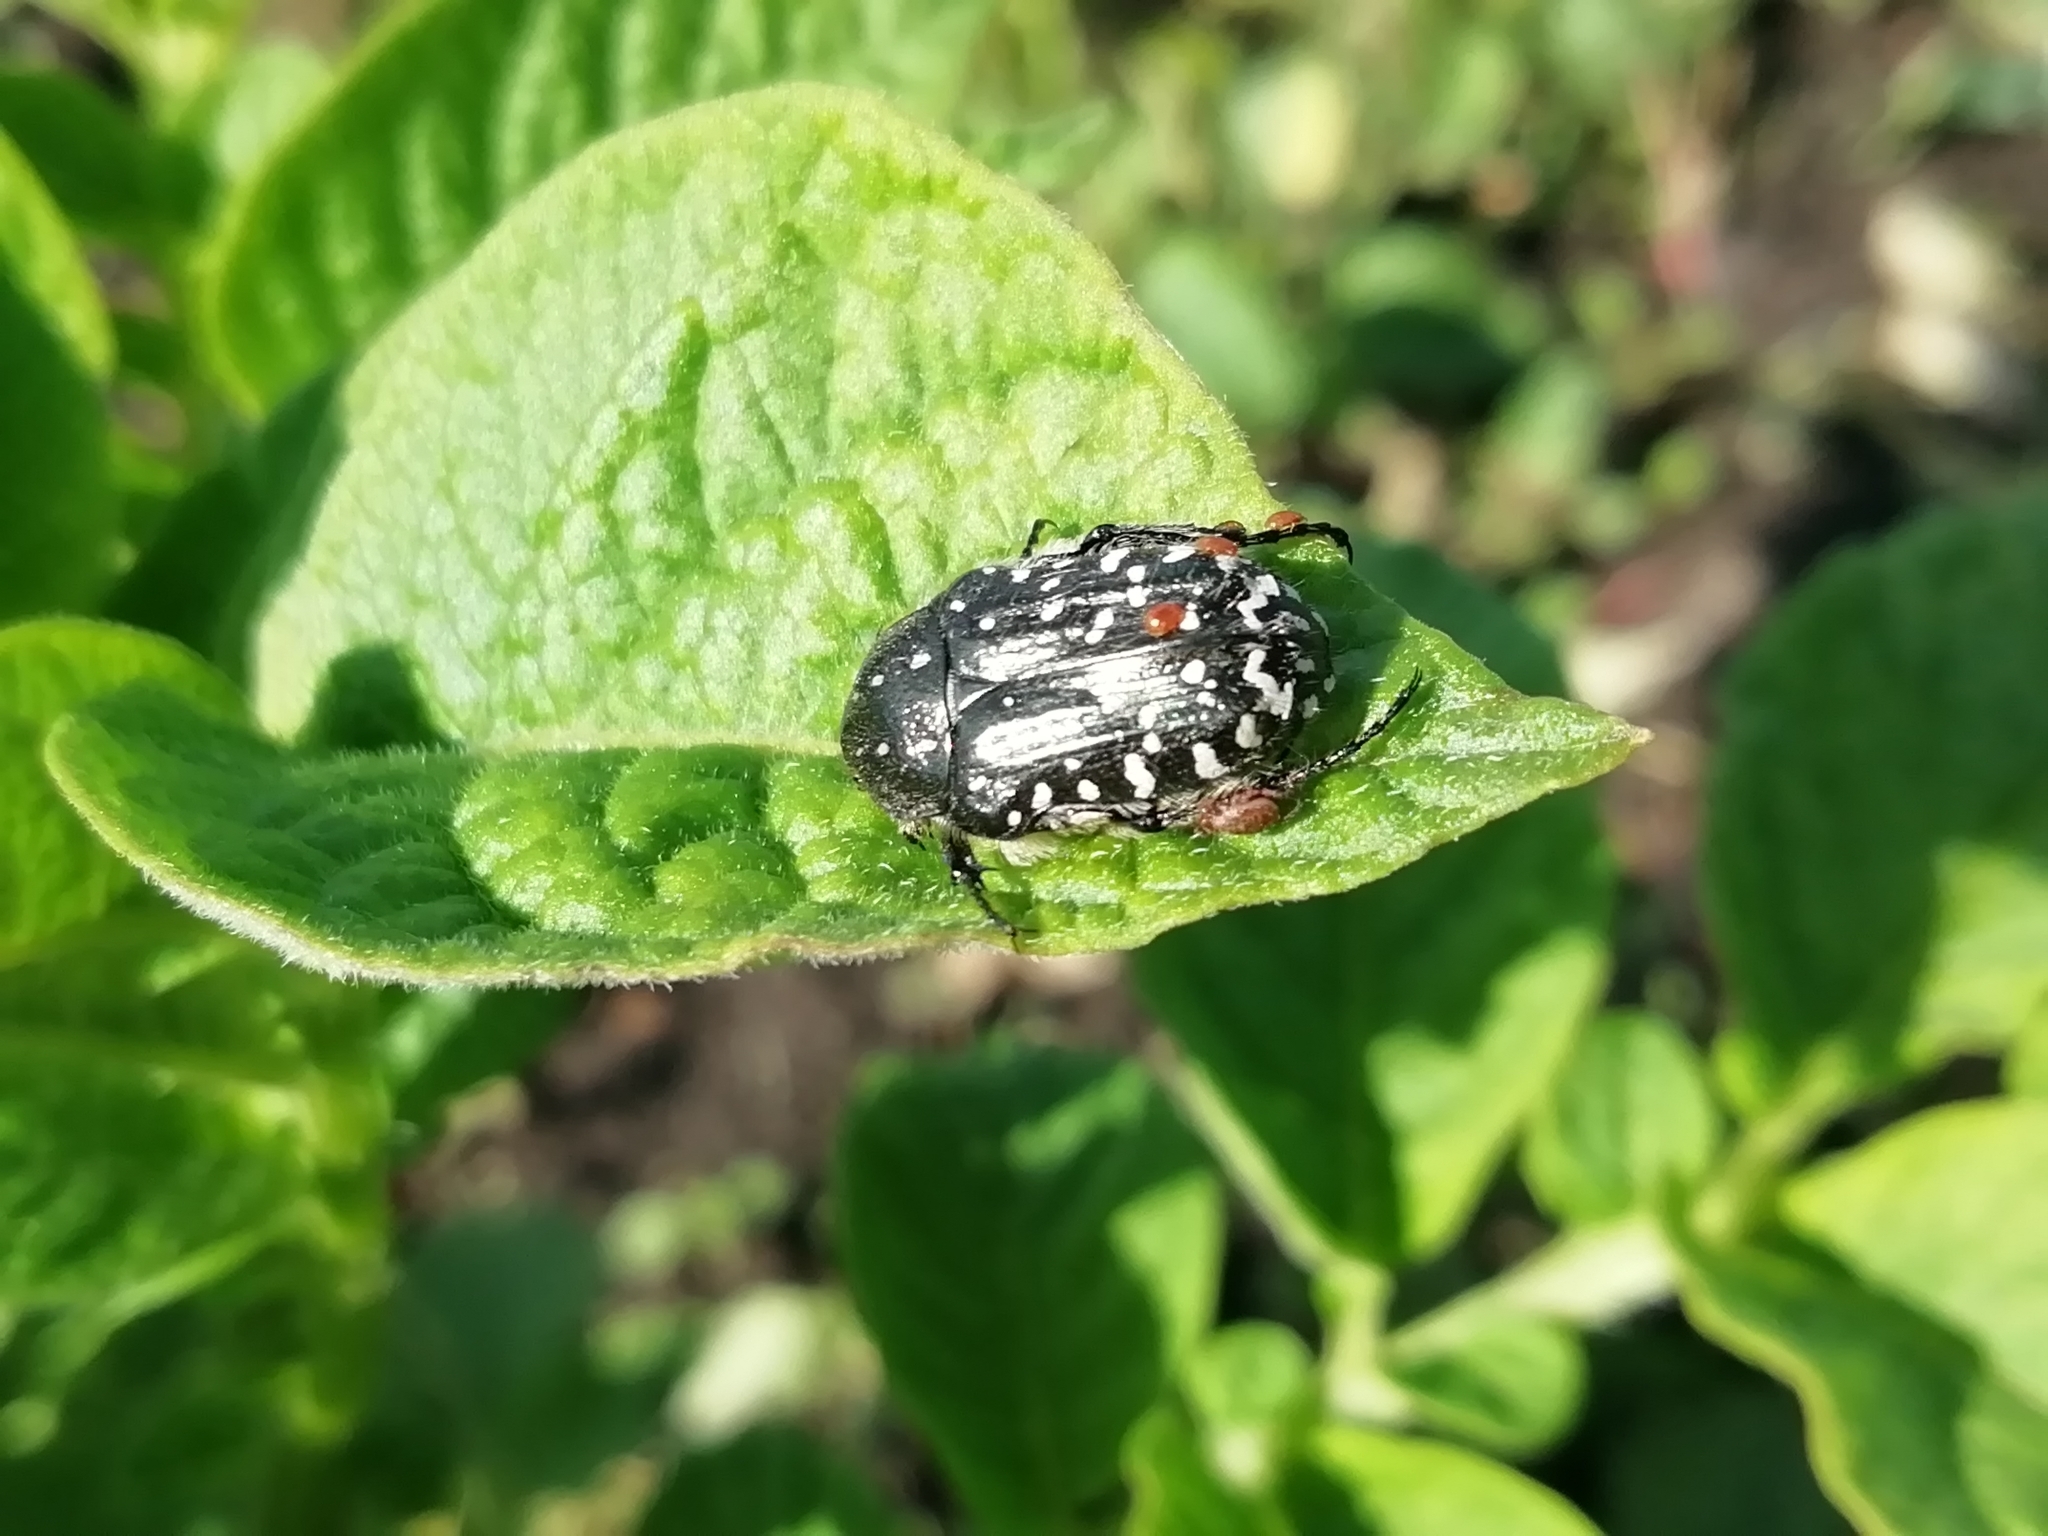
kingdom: Animalia
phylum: Arthropoda
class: Insecta
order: Coleoptera
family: Scarabaeidae
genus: Oxythyrea
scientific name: Oxythyrea funesta
